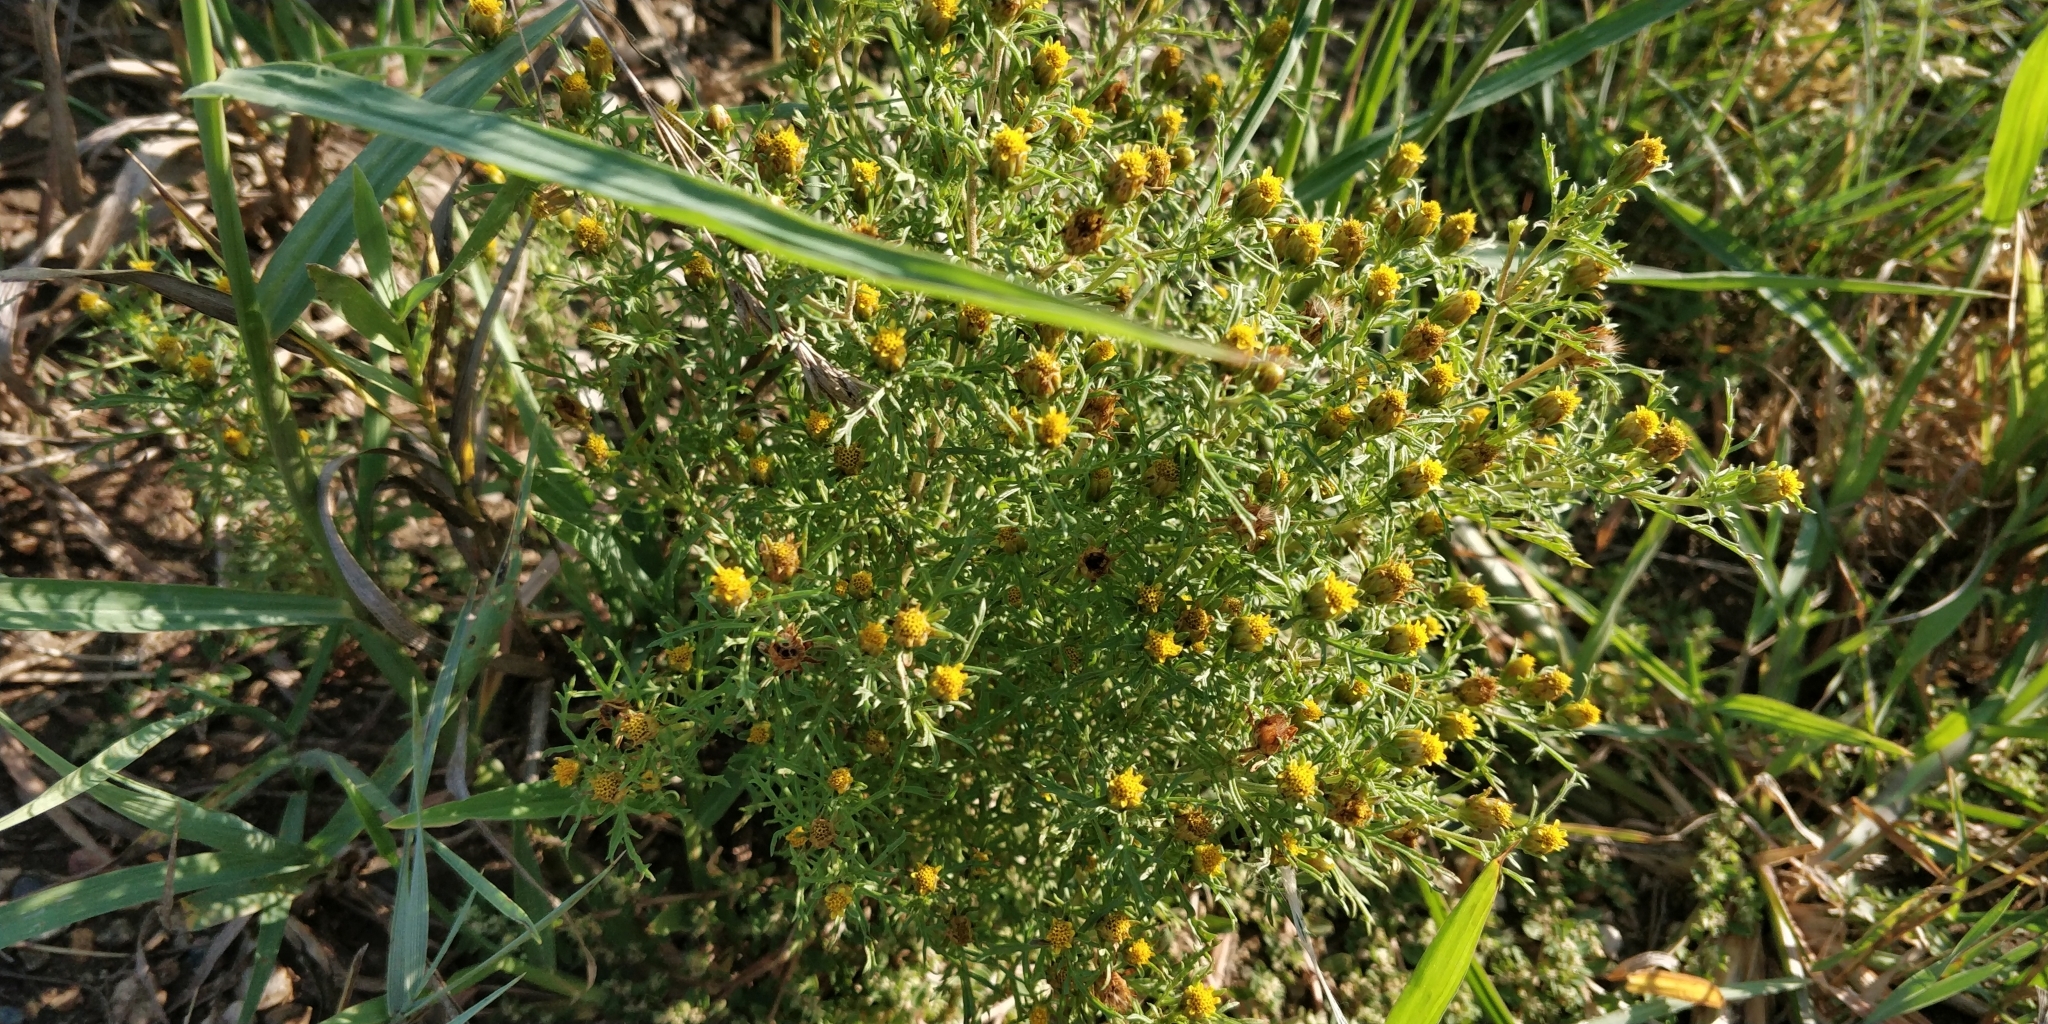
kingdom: Plantae
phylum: Tracheophyta
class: Magnoliopsida
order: Asterales
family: Asteraceae
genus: Dyssodia
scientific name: Dyssodia papposa
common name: Dogweed
